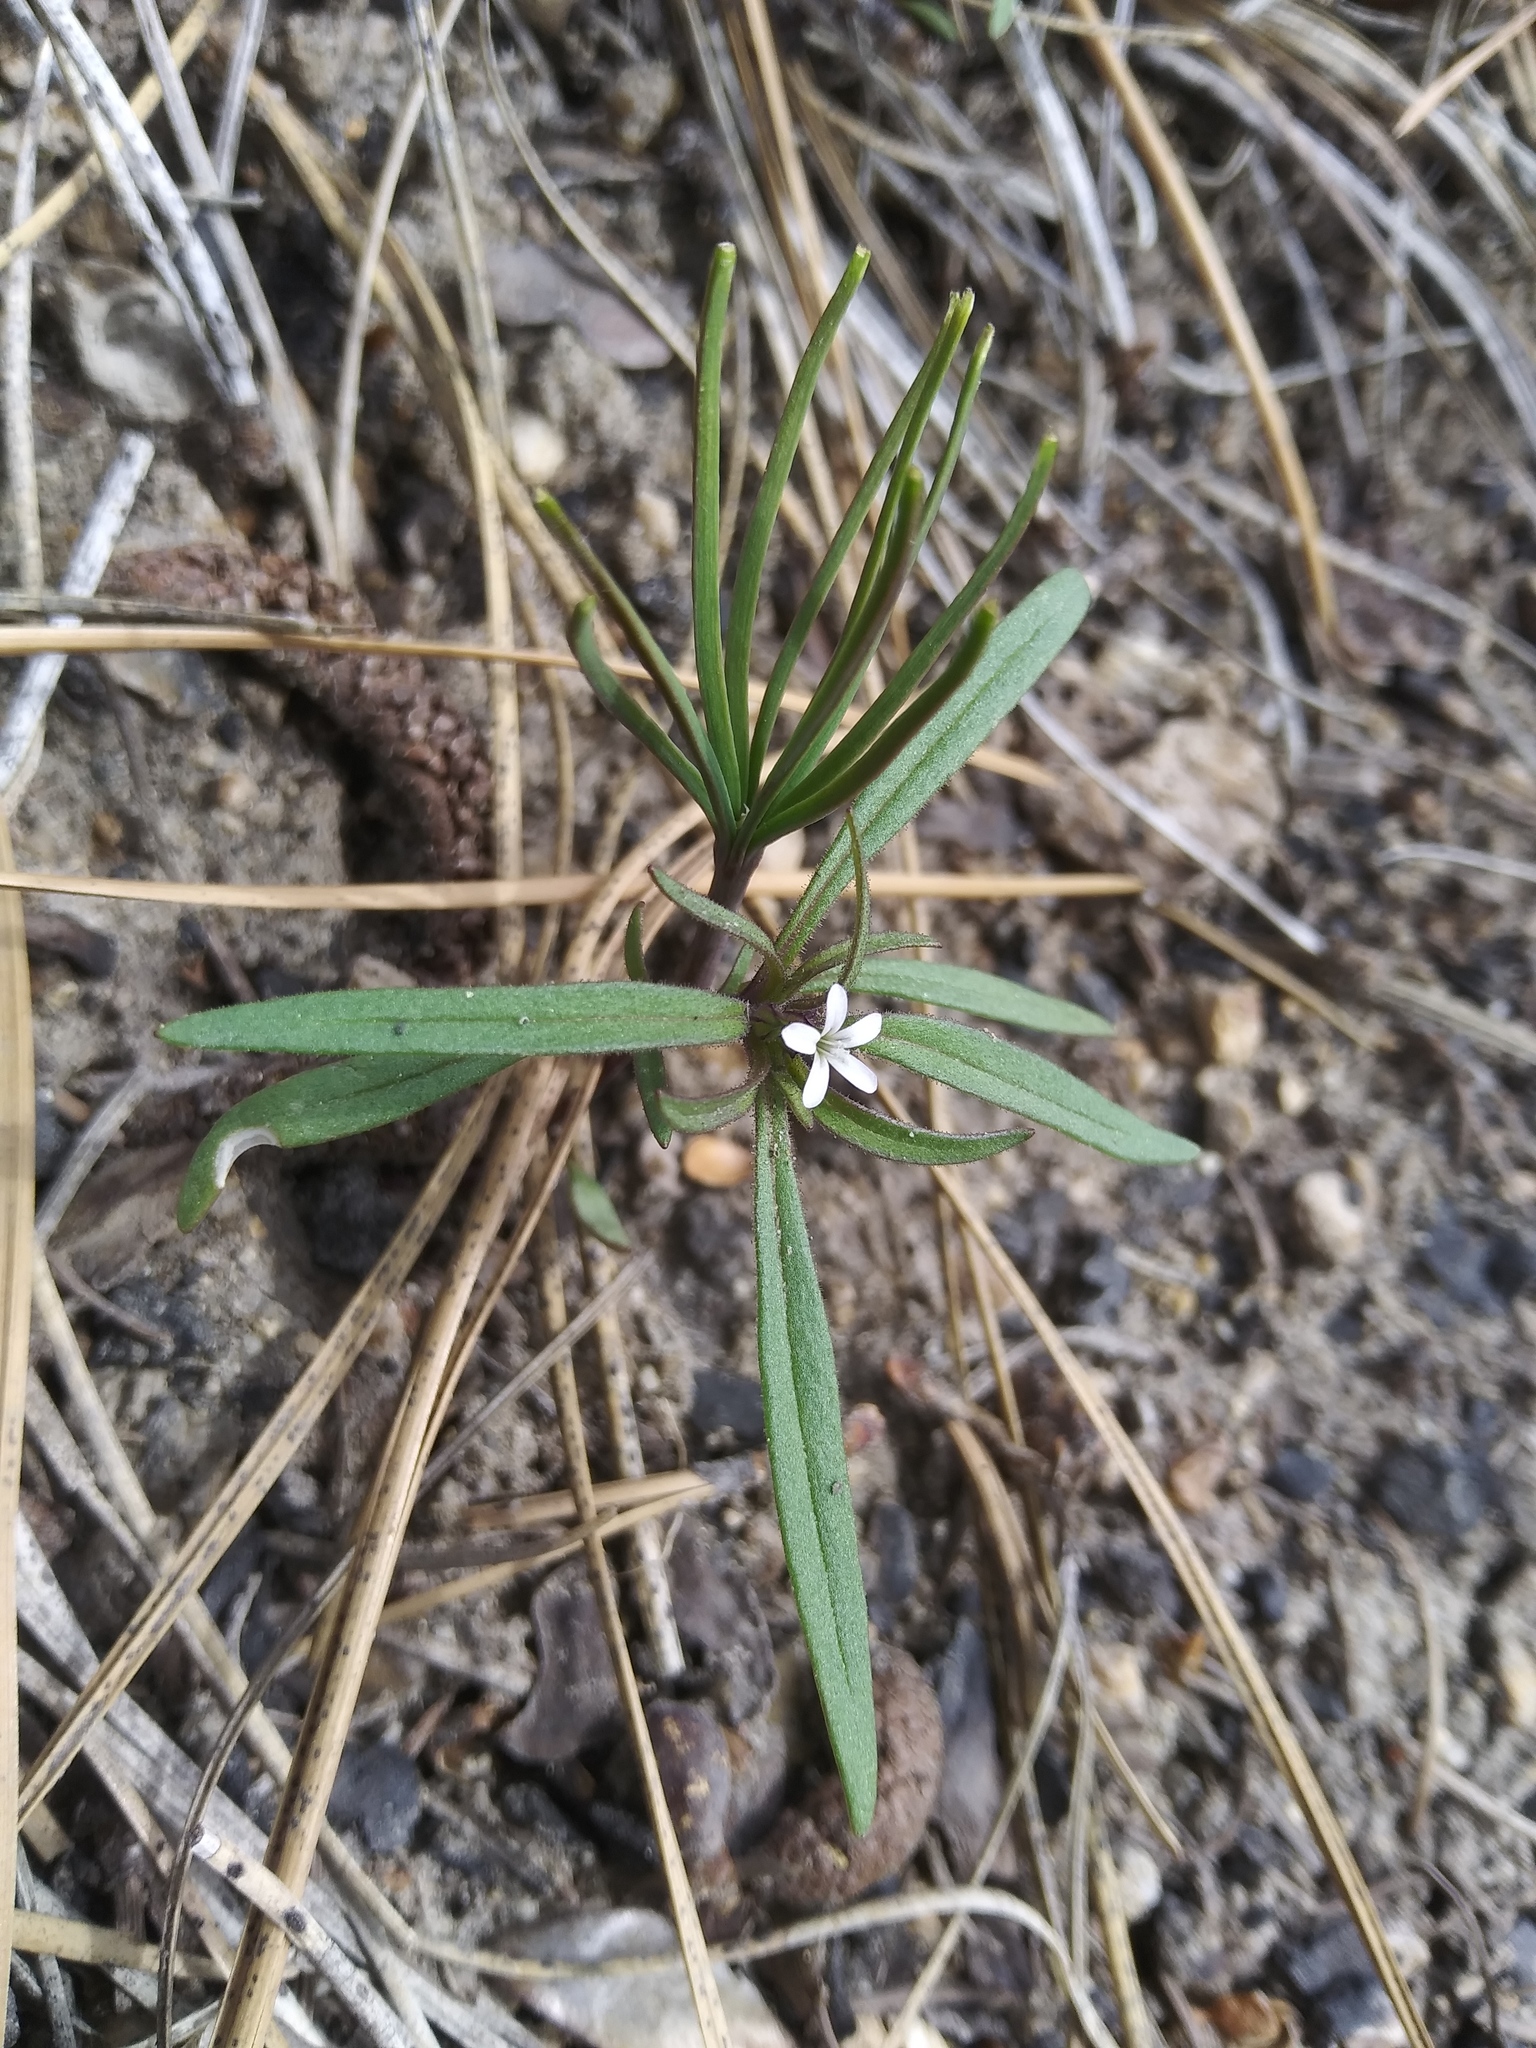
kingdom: Plantae
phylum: Tracheophyta
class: Magnoliopsida
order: Ericales
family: Polemoniaceae
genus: Collomia
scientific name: Collomia tenella
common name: Diffuse collomia
